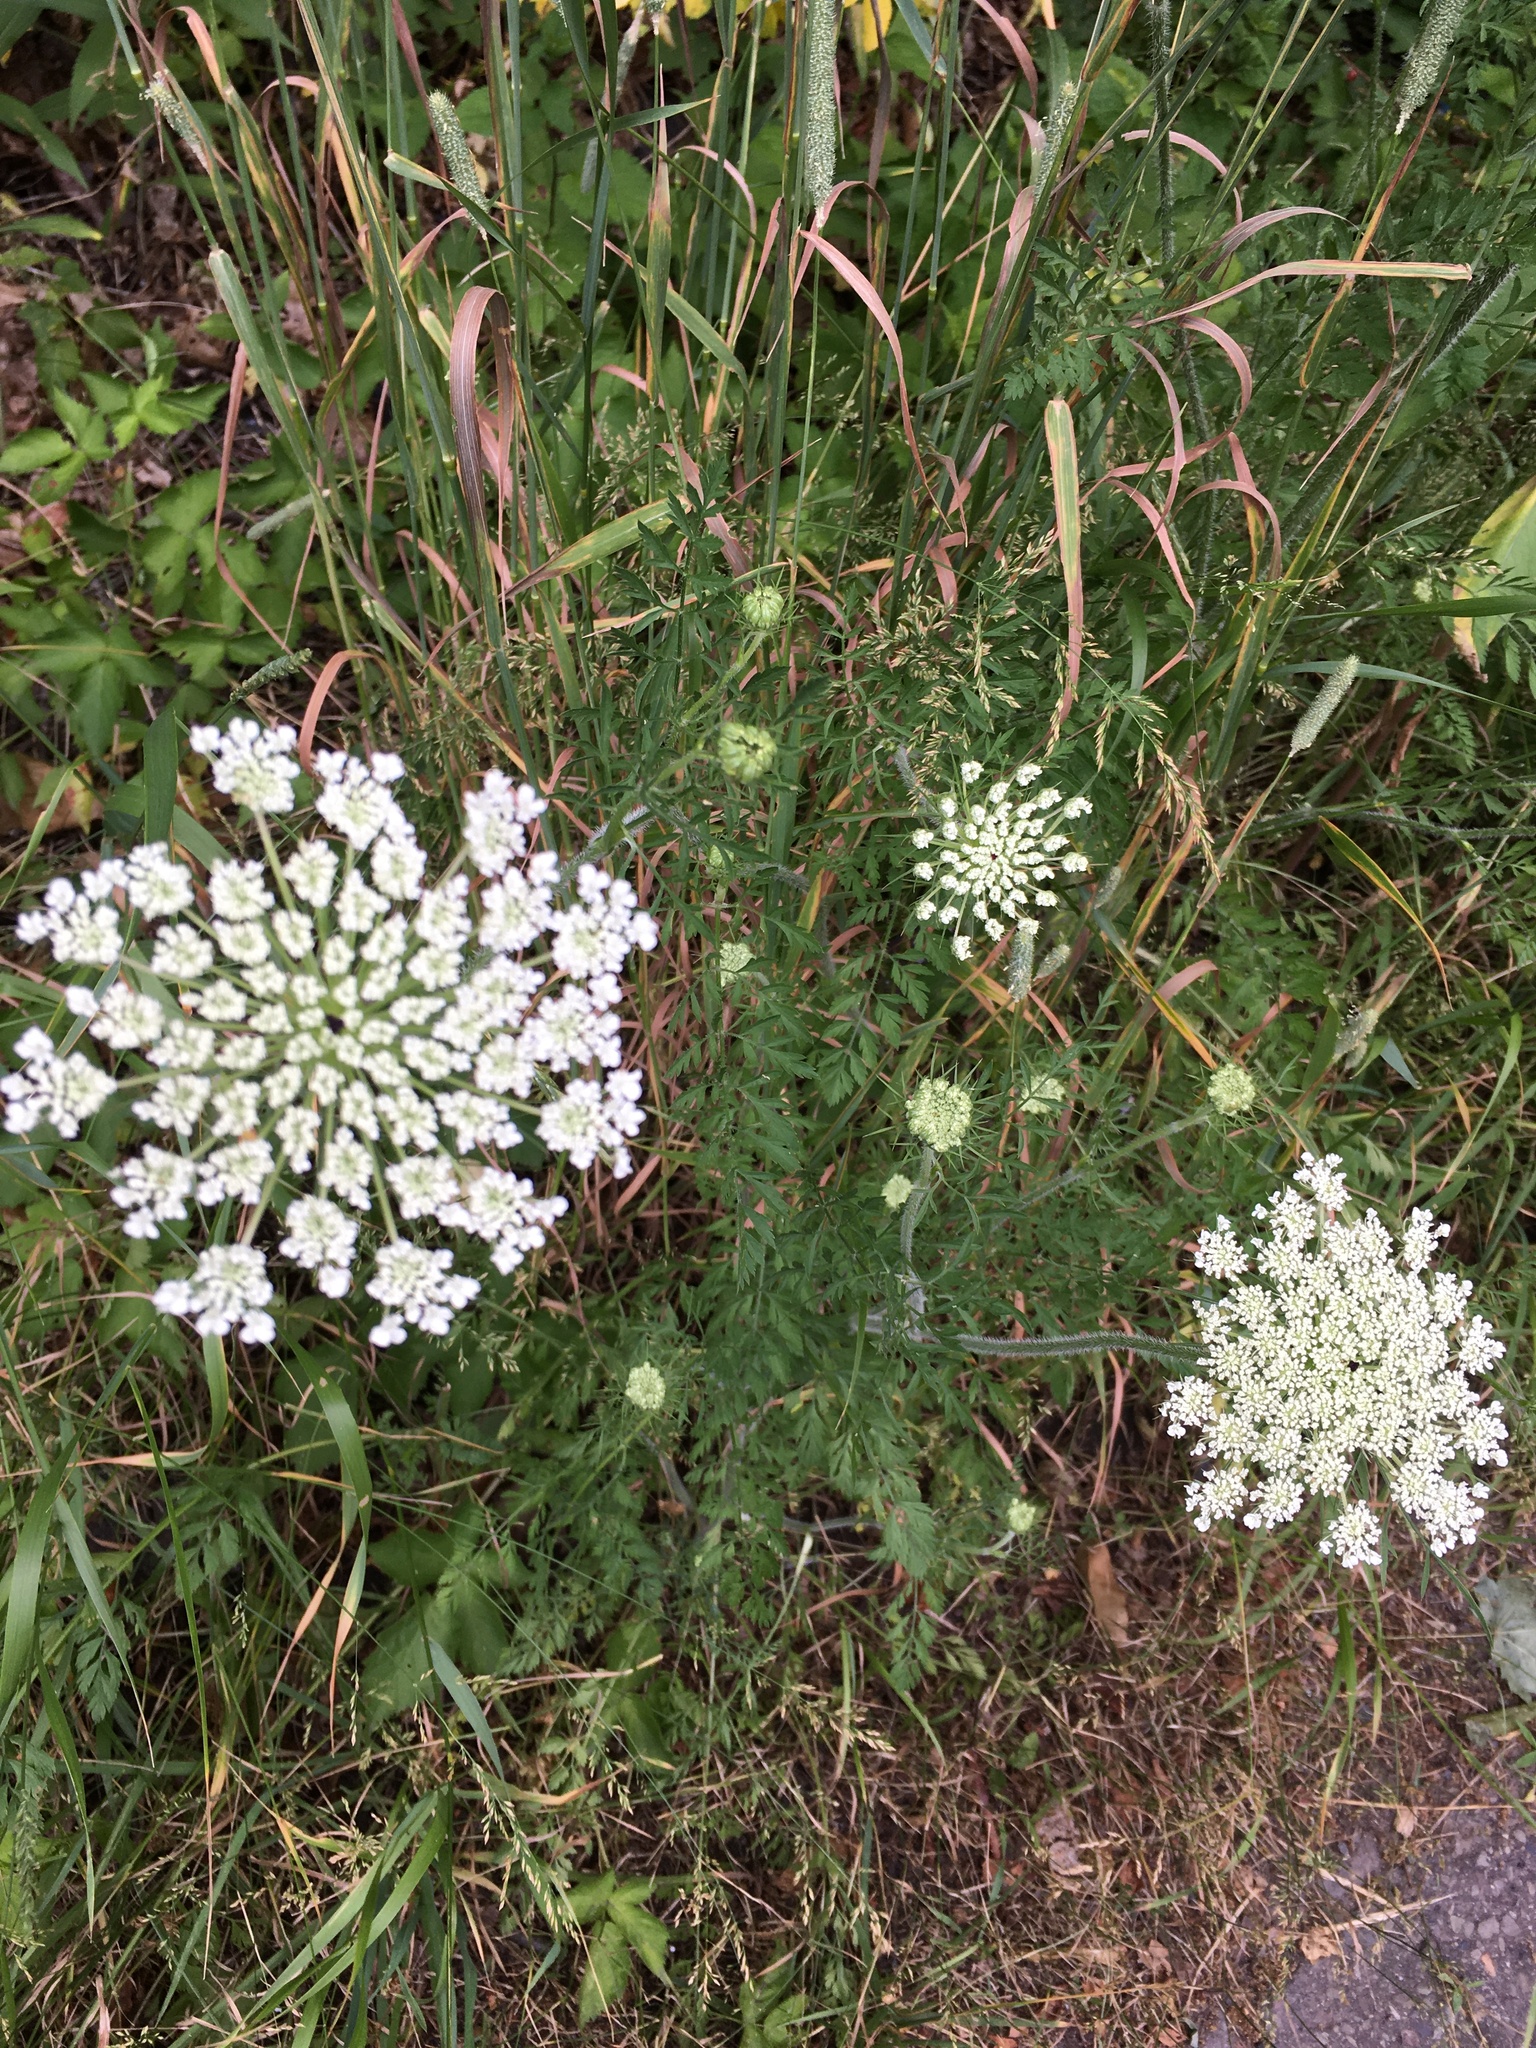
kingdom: Plantae
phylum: Tracheophyta
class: Magnoliopsida
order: Apiales
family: Apiaceae
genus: Daucus
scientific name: Daucus carota
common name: Wild carrot
